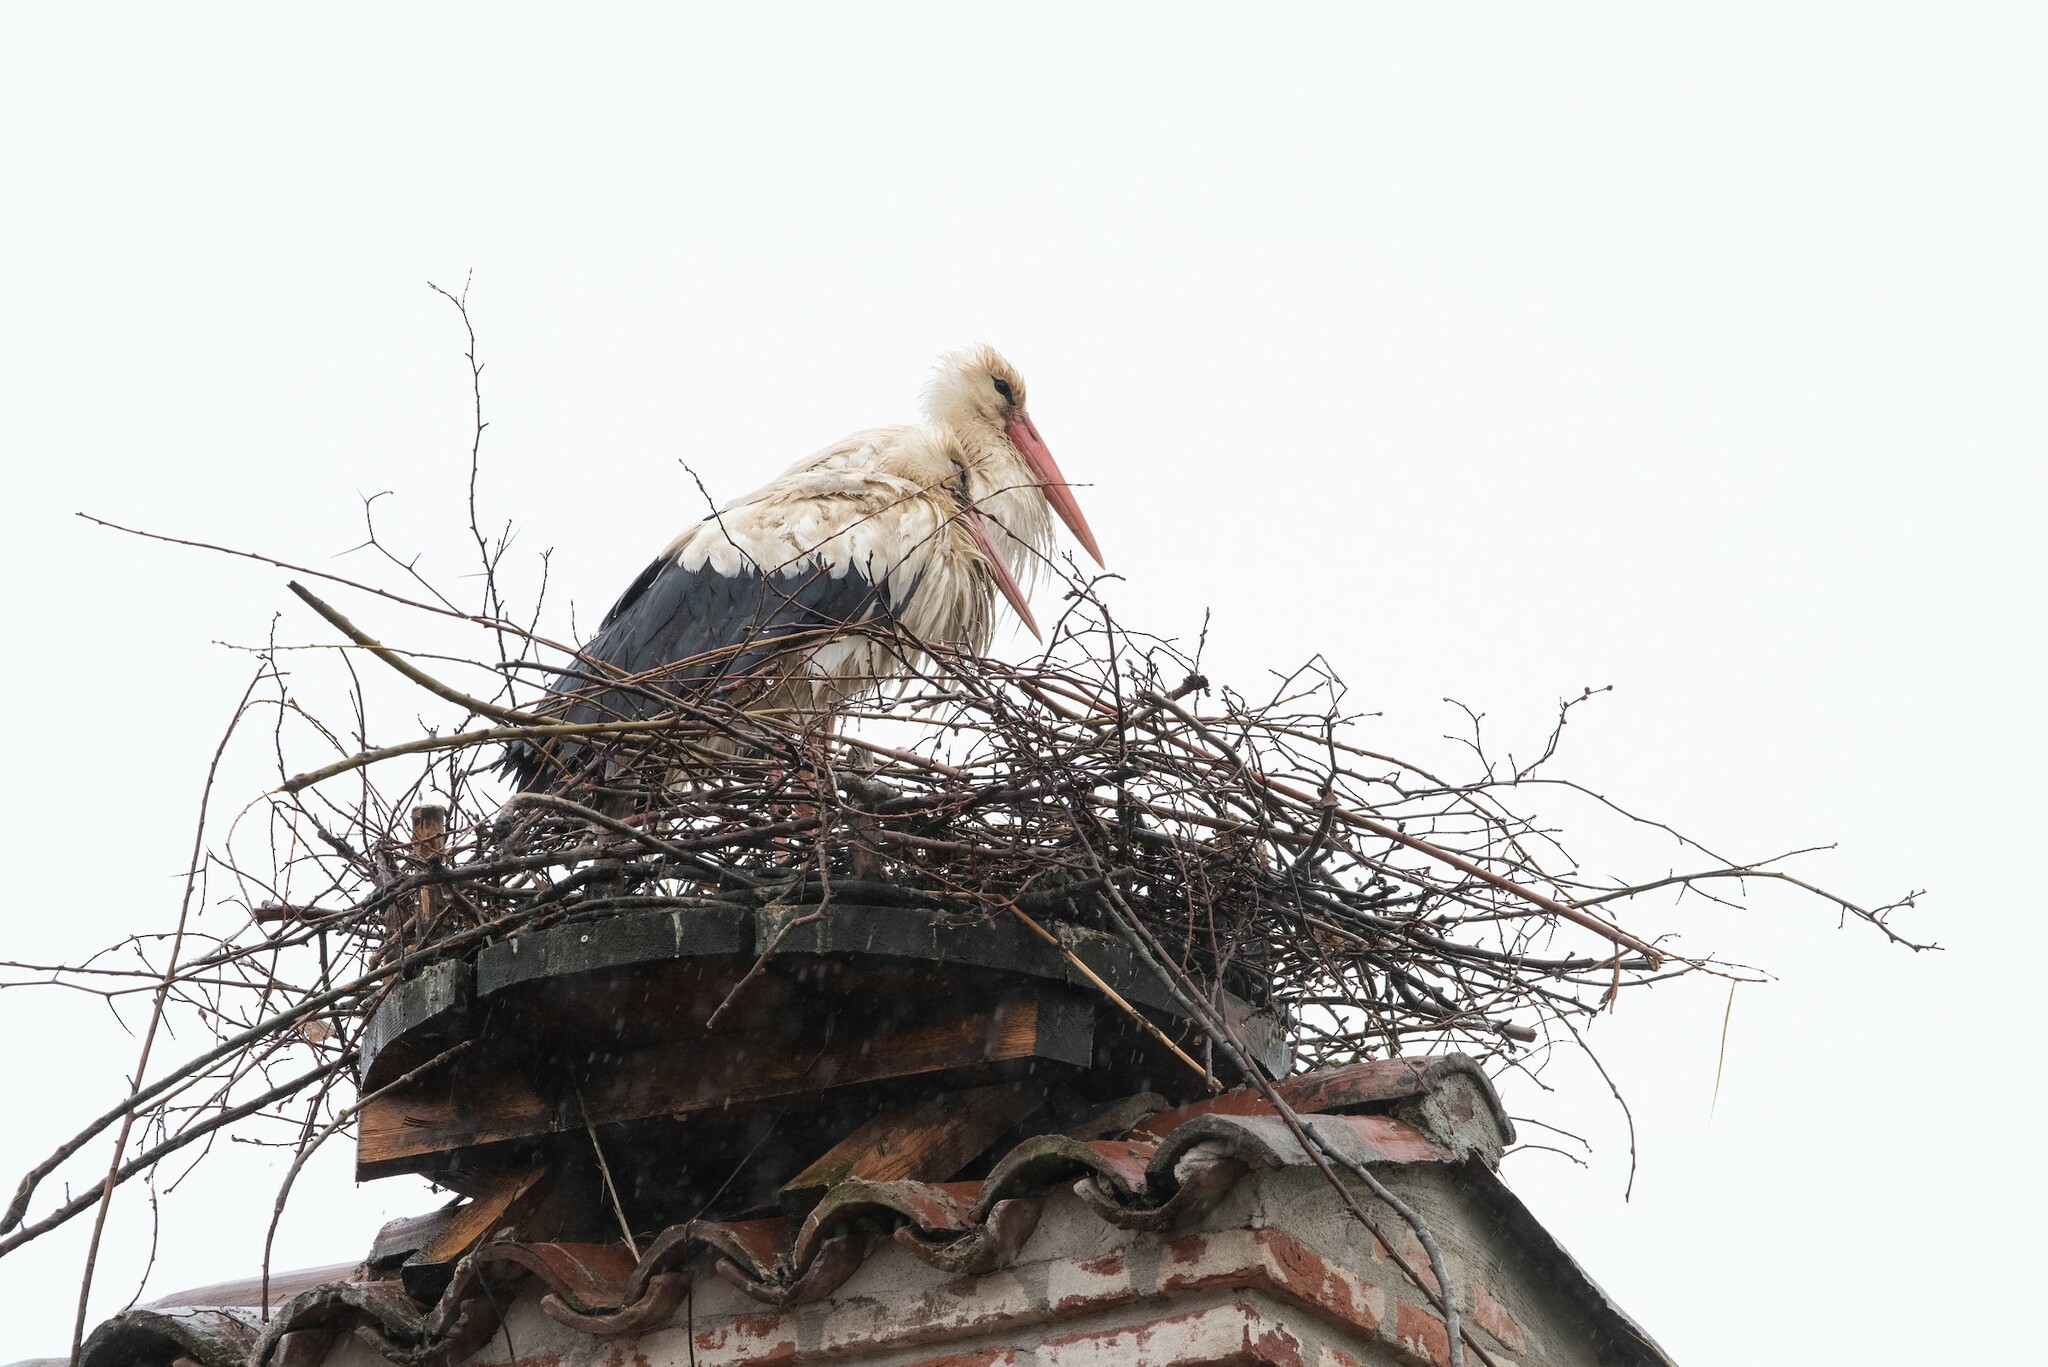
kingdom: Animalia
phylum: Chordata
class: Aves
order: Ciconiiformes
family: Ciconiidae
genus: Ciconia
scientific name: Ciconia ciconia
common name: White stork
